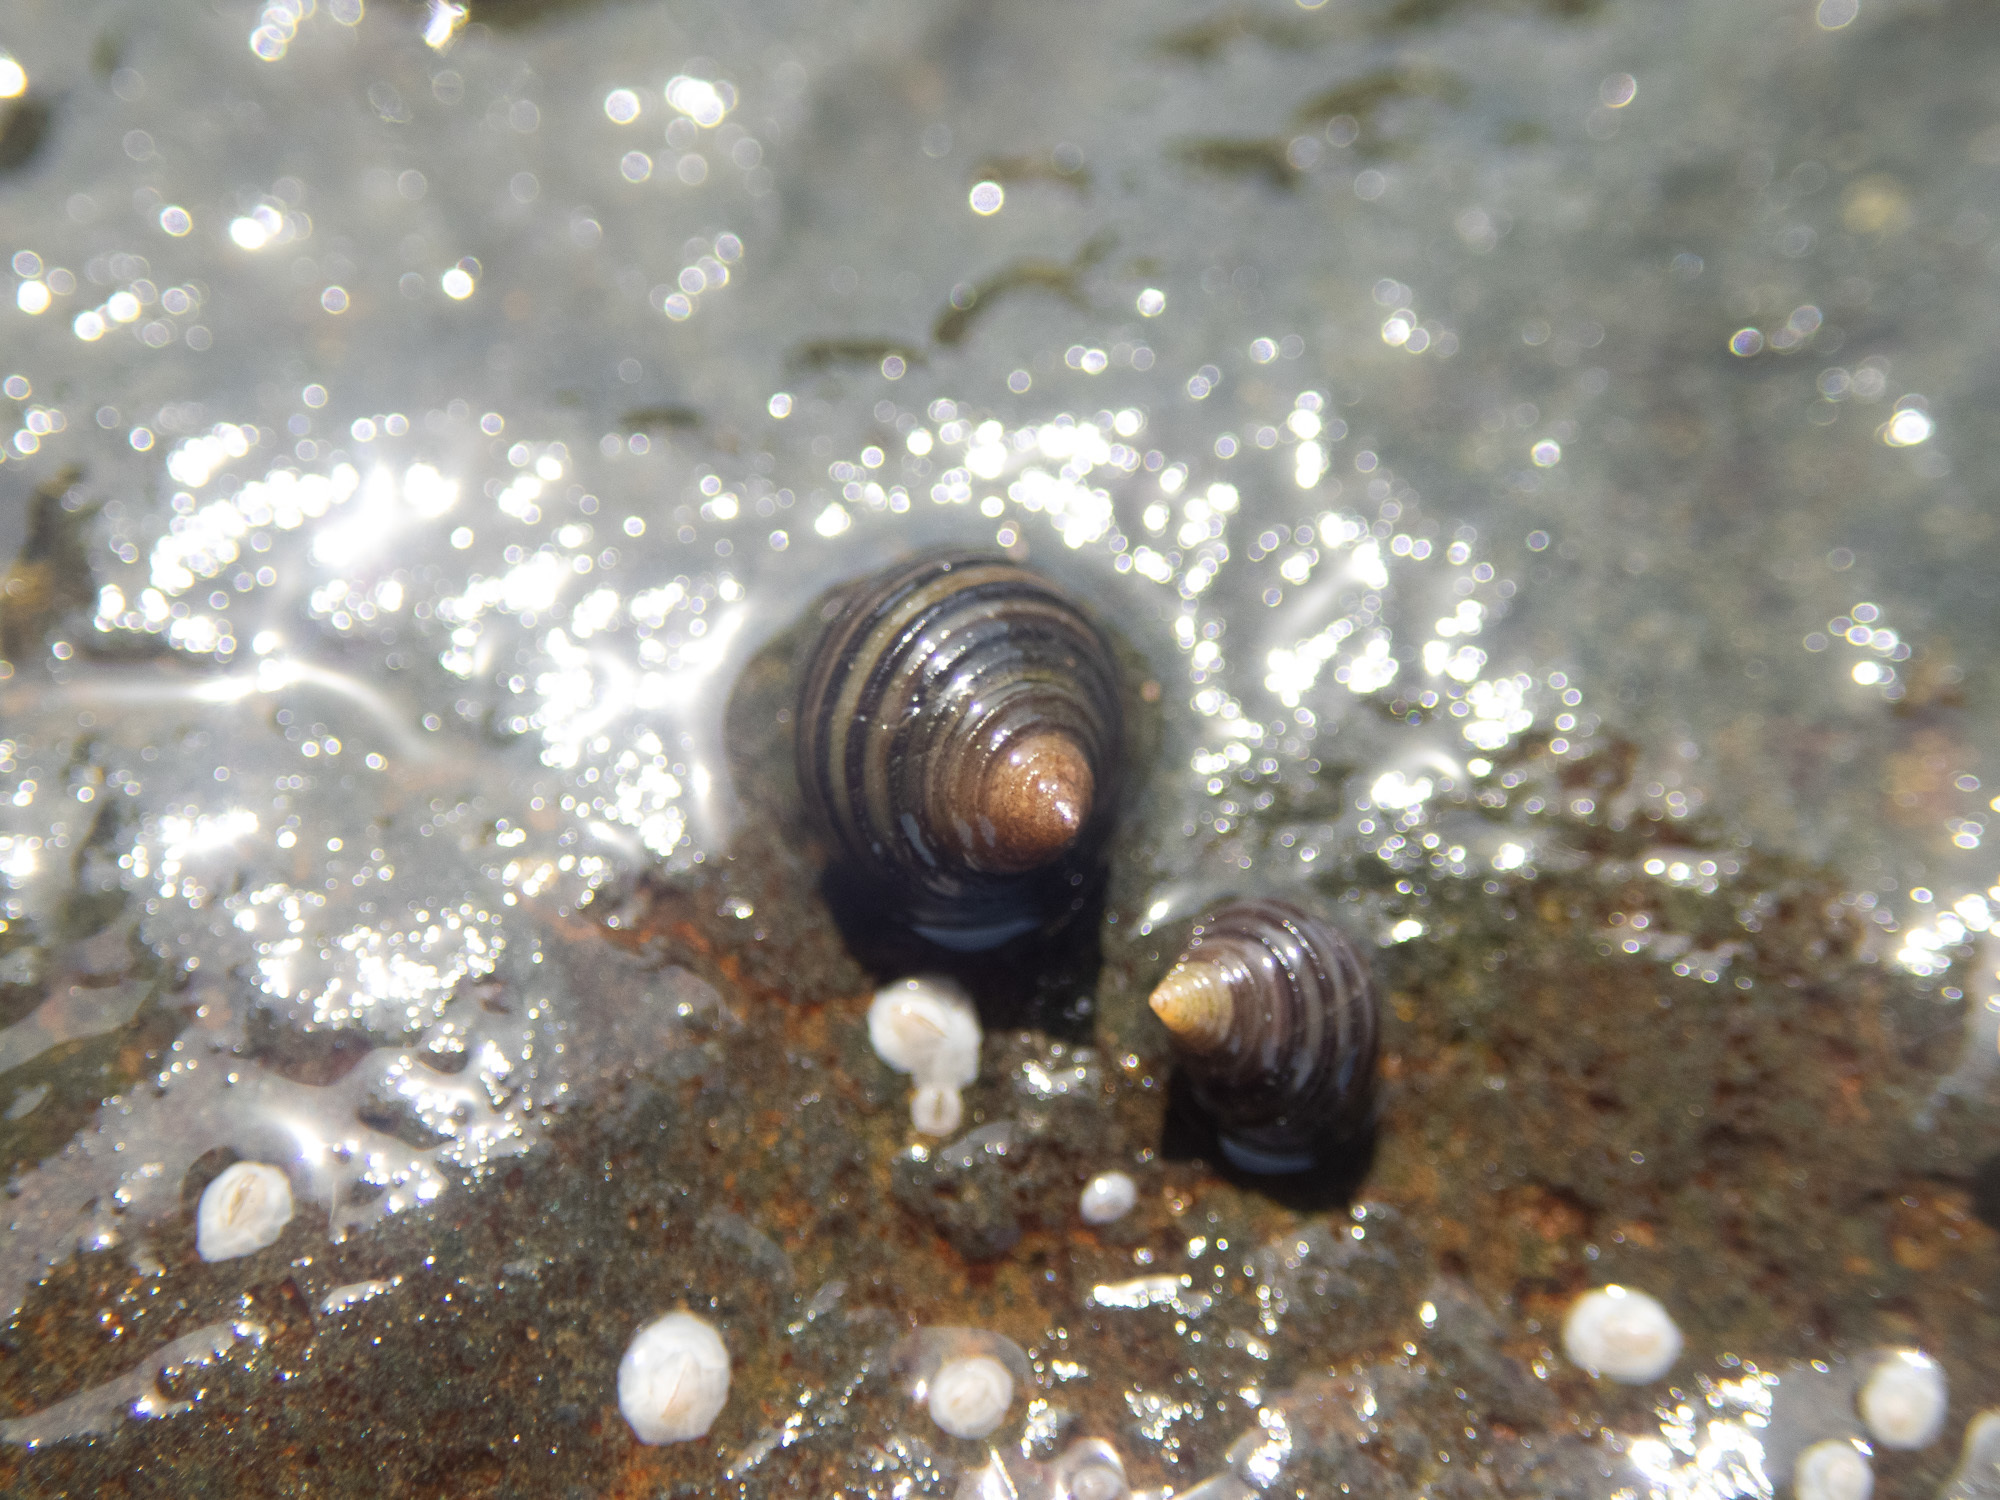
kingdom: Animalia
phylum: Mollusca
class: Gastropoda
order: Littorinimorpha
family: Littorinidae
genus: Littorina
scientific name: Littorina saxatilis
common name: Black-lined periwinkle
